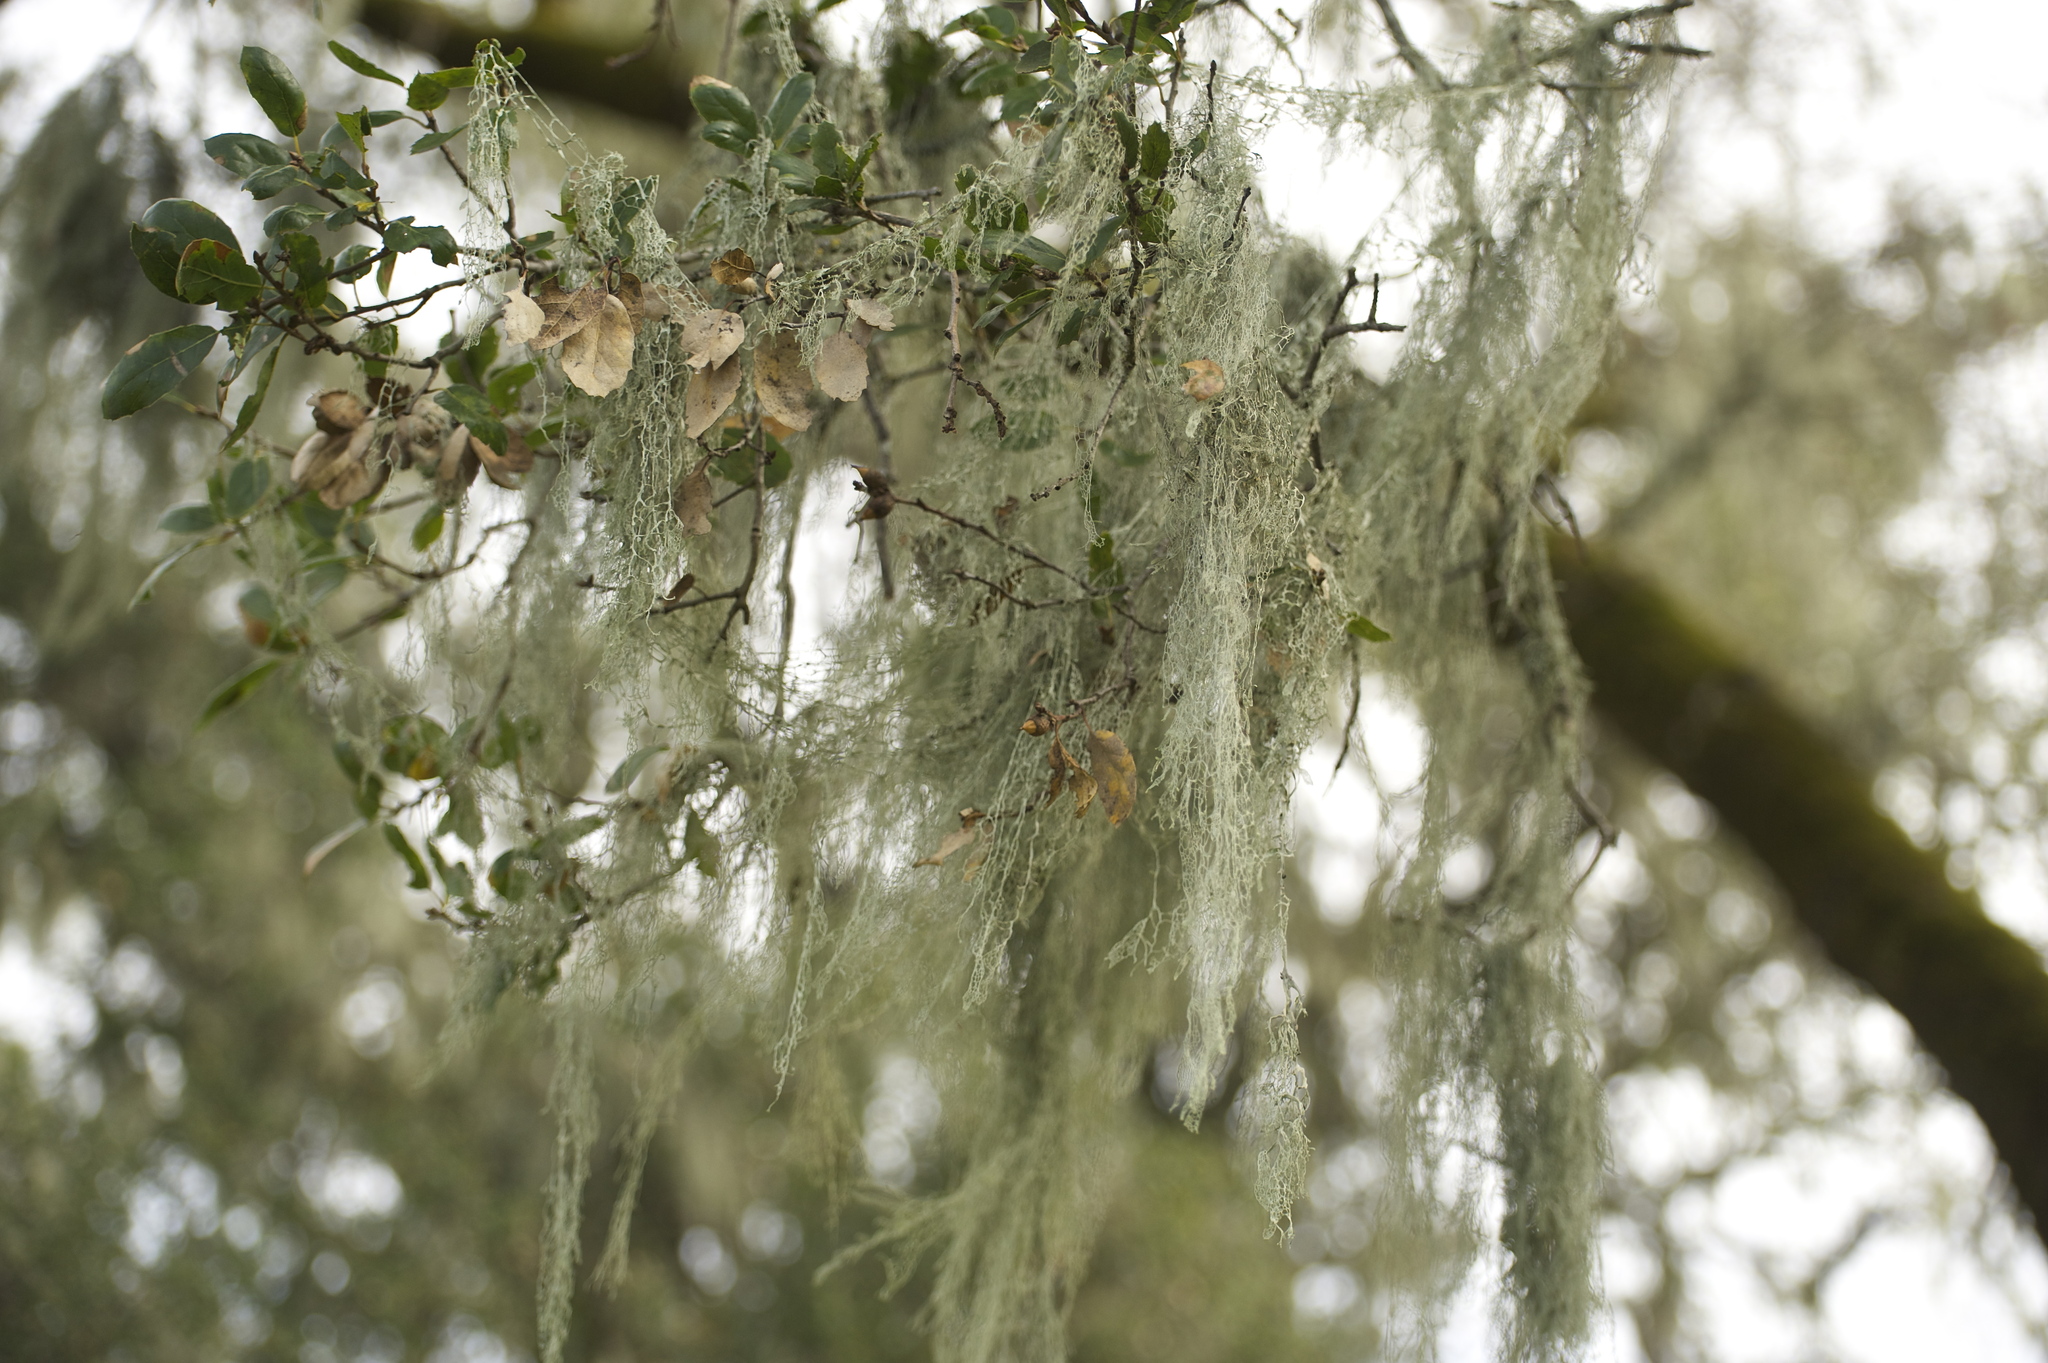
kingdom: Fungi
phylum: Ascomycota
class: Lecanoromycetes
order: Lecanorales
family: Ramalinaceae
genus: Ramalina
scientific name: Ramalina menziesii
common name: Lace lichen
